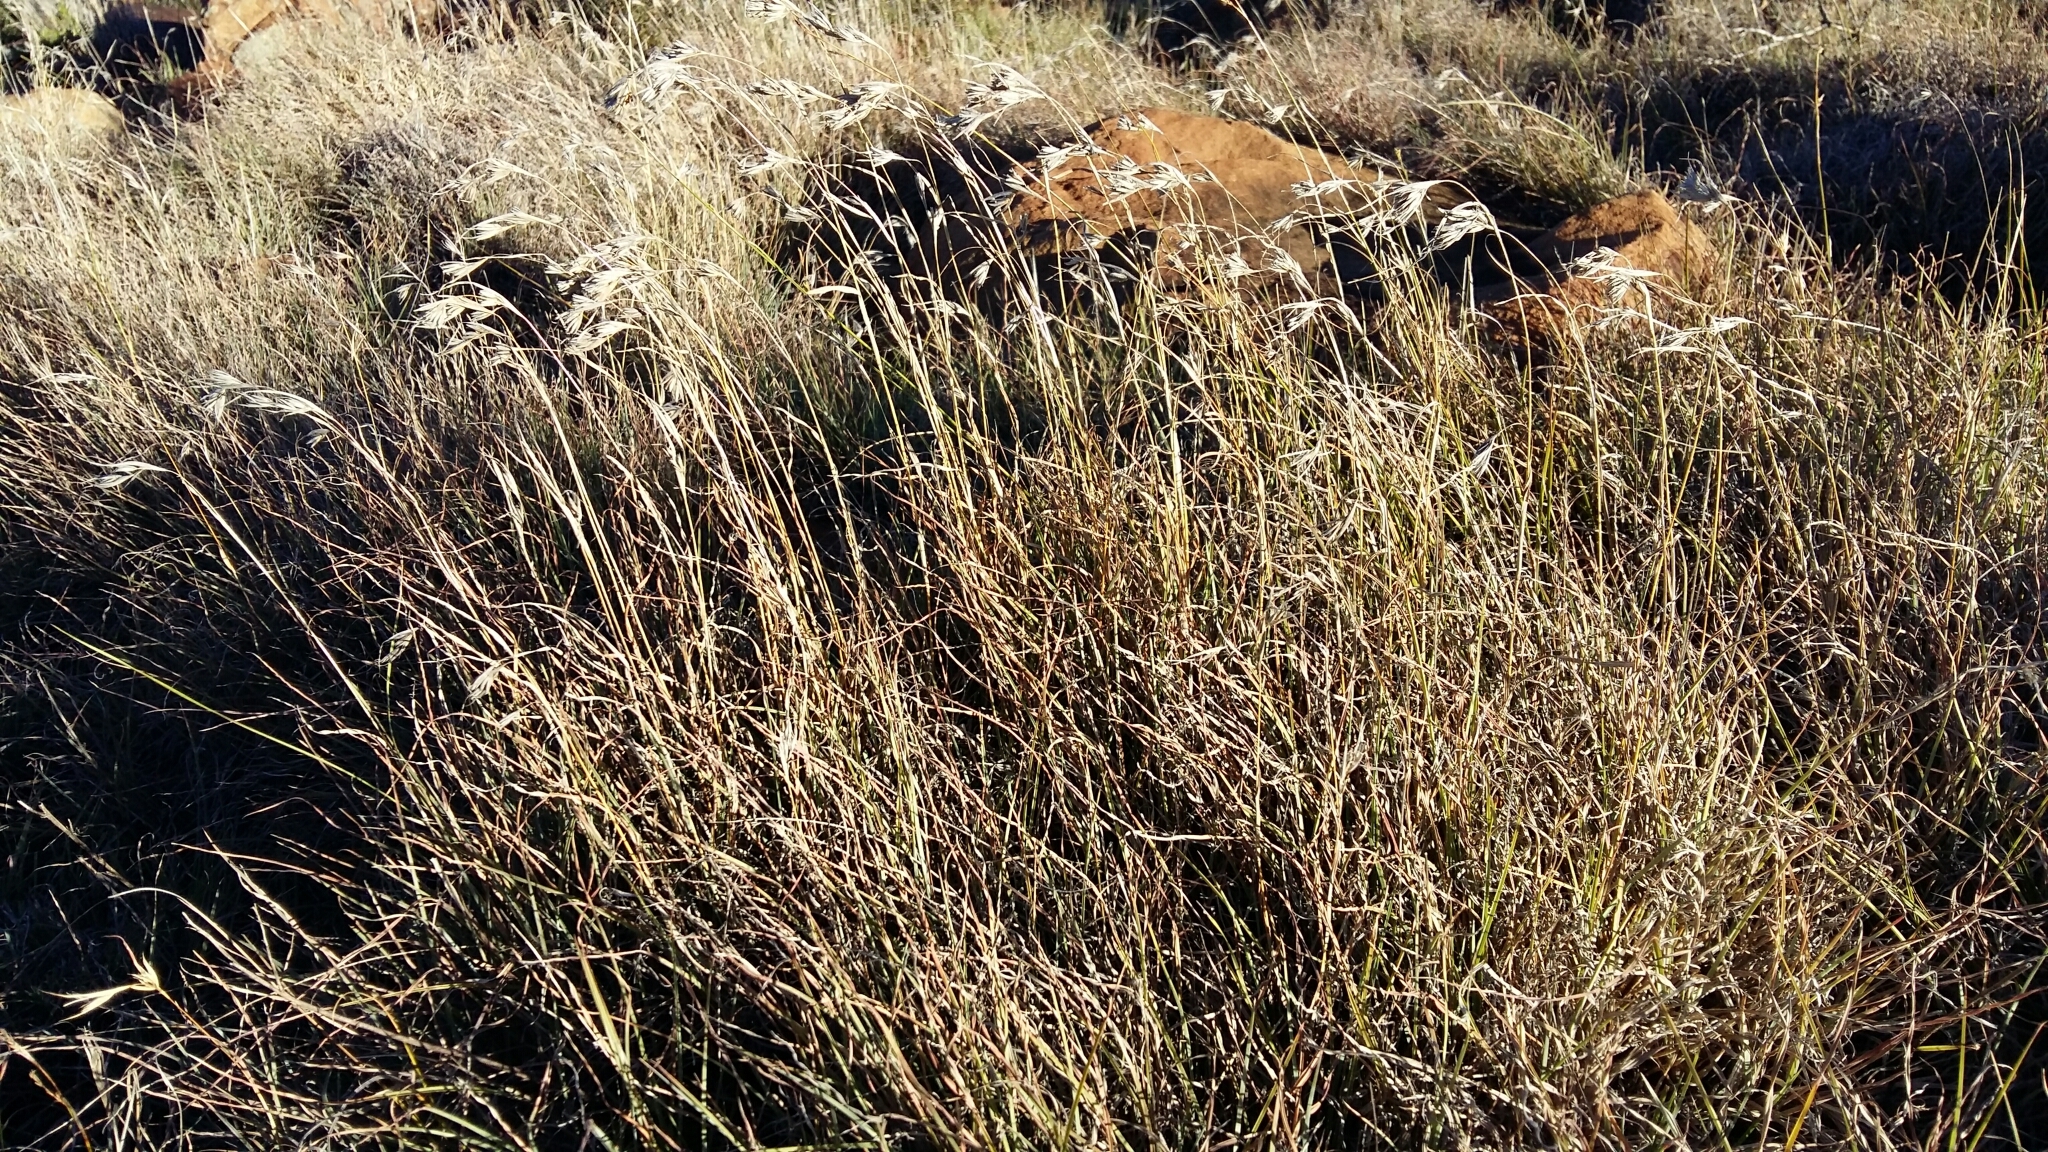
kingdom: Plantae
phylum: Tracheophyta
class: Liliopsida
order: Poales
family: Poaceae
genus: Themeda
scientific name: Themeda triandra
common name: Kangaroo grass
